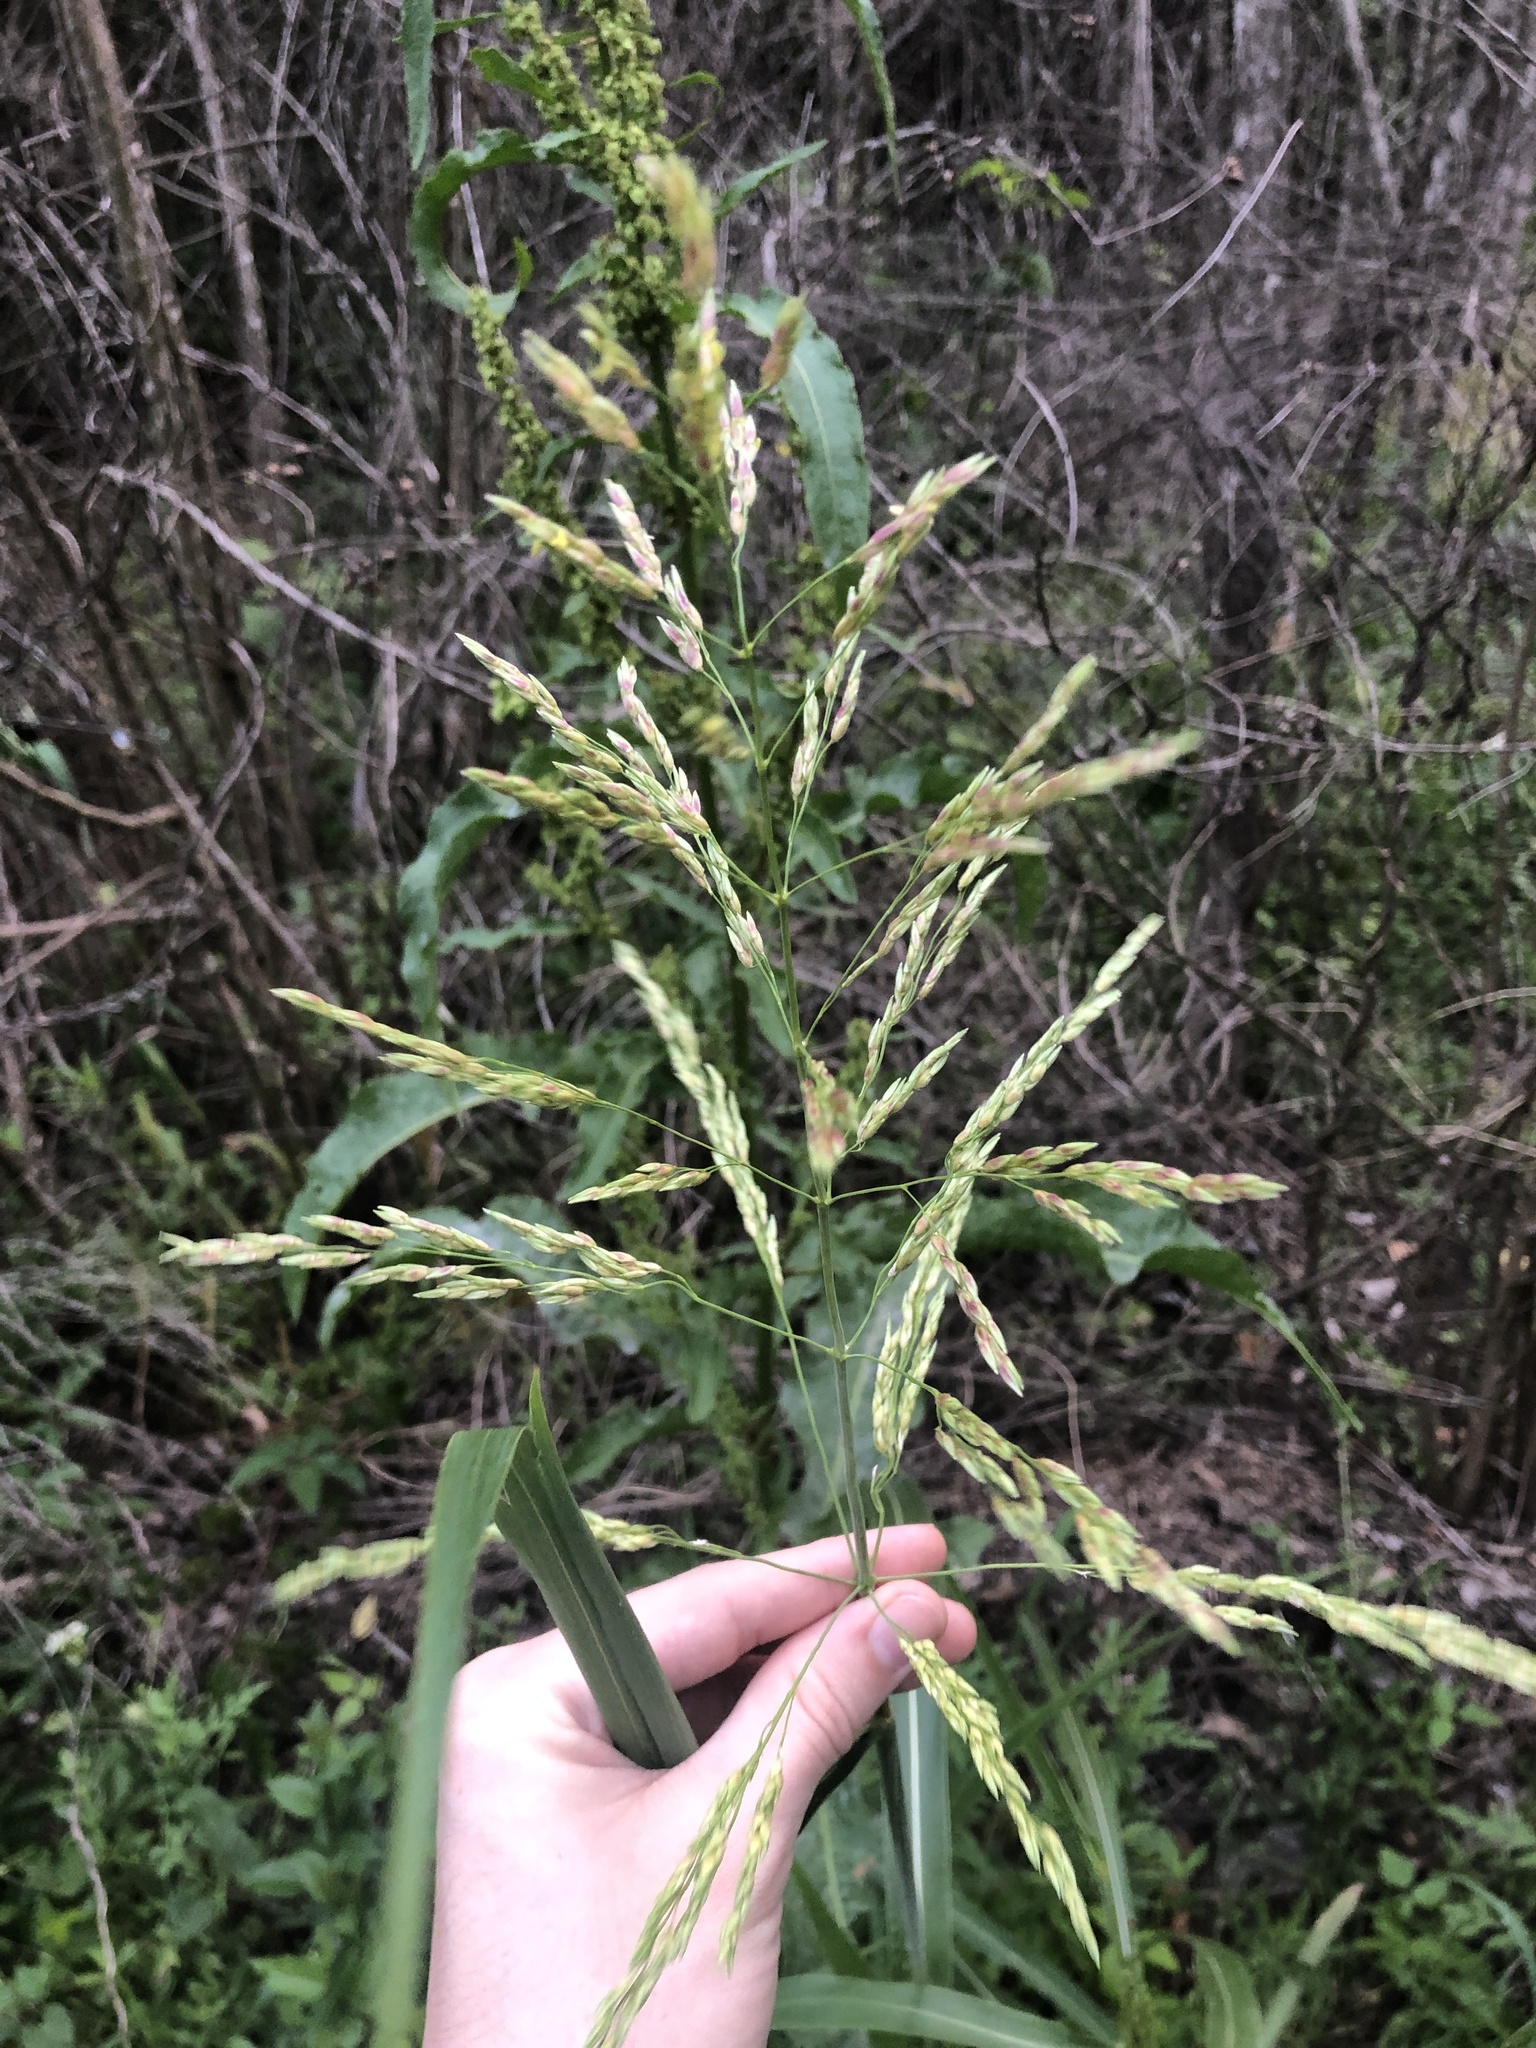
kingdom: Plantae
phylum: Tracheophyta
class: Liliopsida
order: Poales
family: Poaceae
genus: Sorghum
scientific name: Sorghum halepense
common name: Johnson-grass
